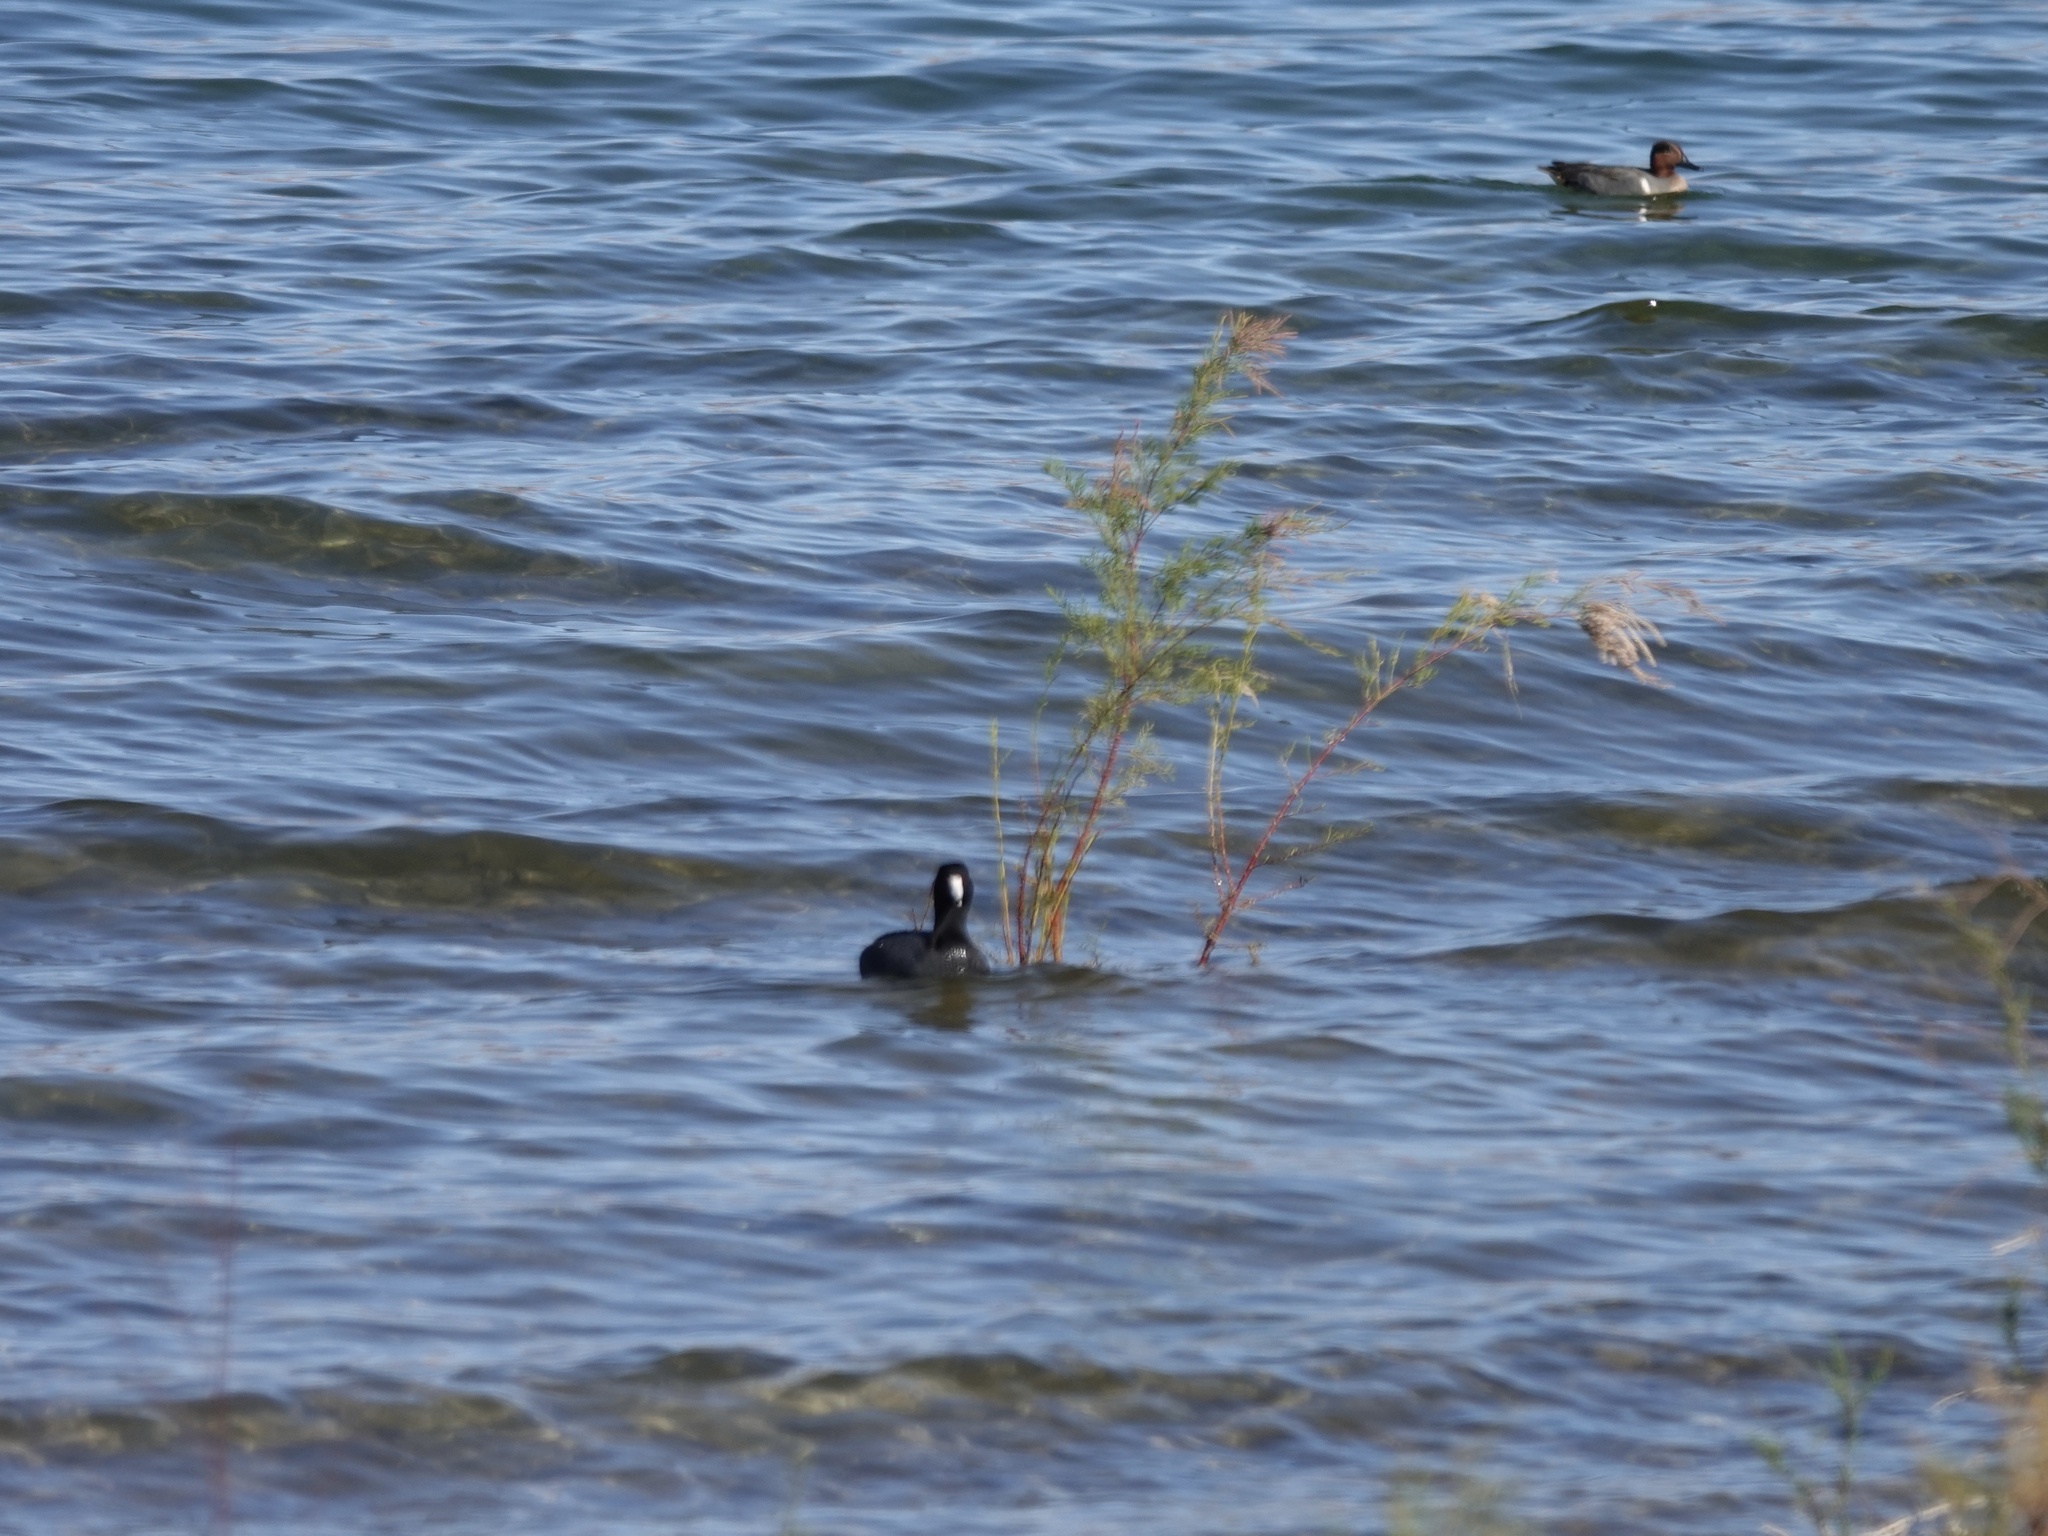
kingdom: Animalia
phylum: Chordata
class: Aves
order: Gruiformes
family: Rallidae
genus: Fulica
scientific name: Fulica americana
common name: American coot
